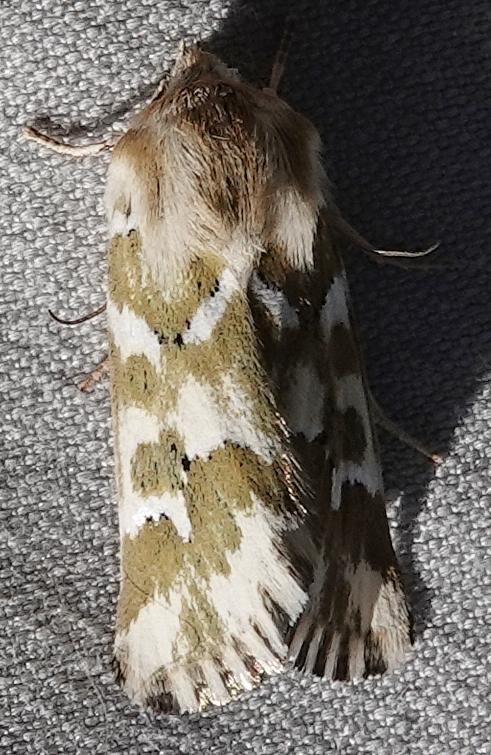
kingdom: Animalia
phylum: Arthropoda
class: Insecta
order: Lepidoptera
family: Noctuidae
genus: Schinia
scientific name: Schinia meadi
